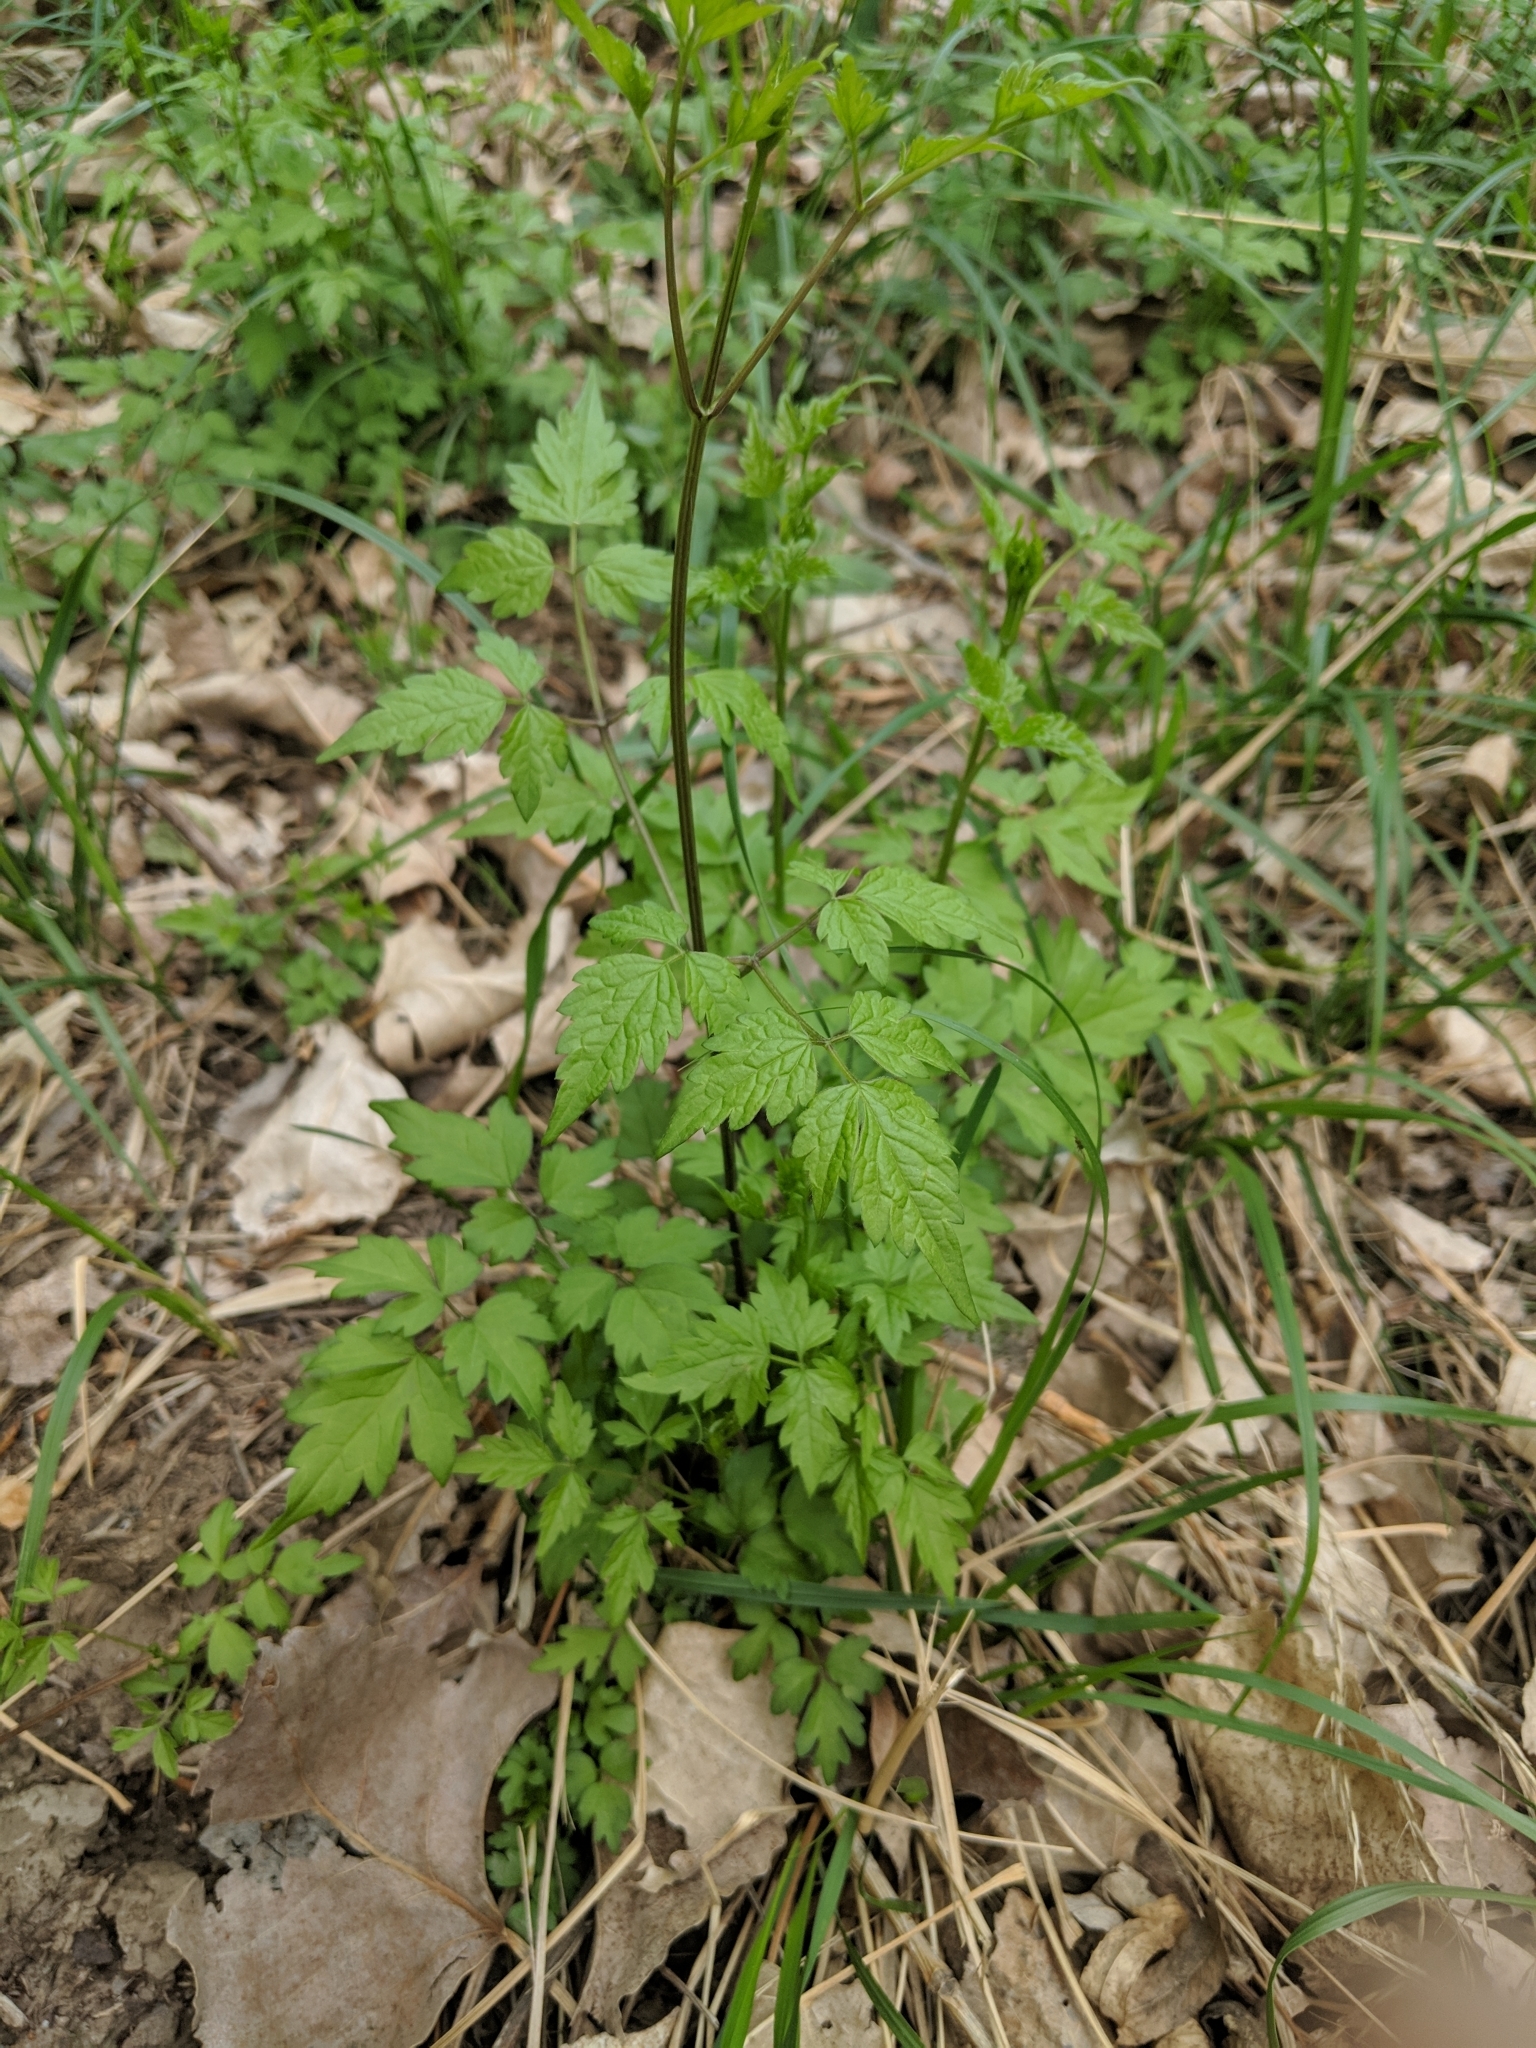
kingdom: Plantae
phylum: Tracheophyta
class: Magnoliopsida
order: Ranunculales
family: Ranunculaceae
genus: Clematis
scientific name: Clematis brevicaudata
